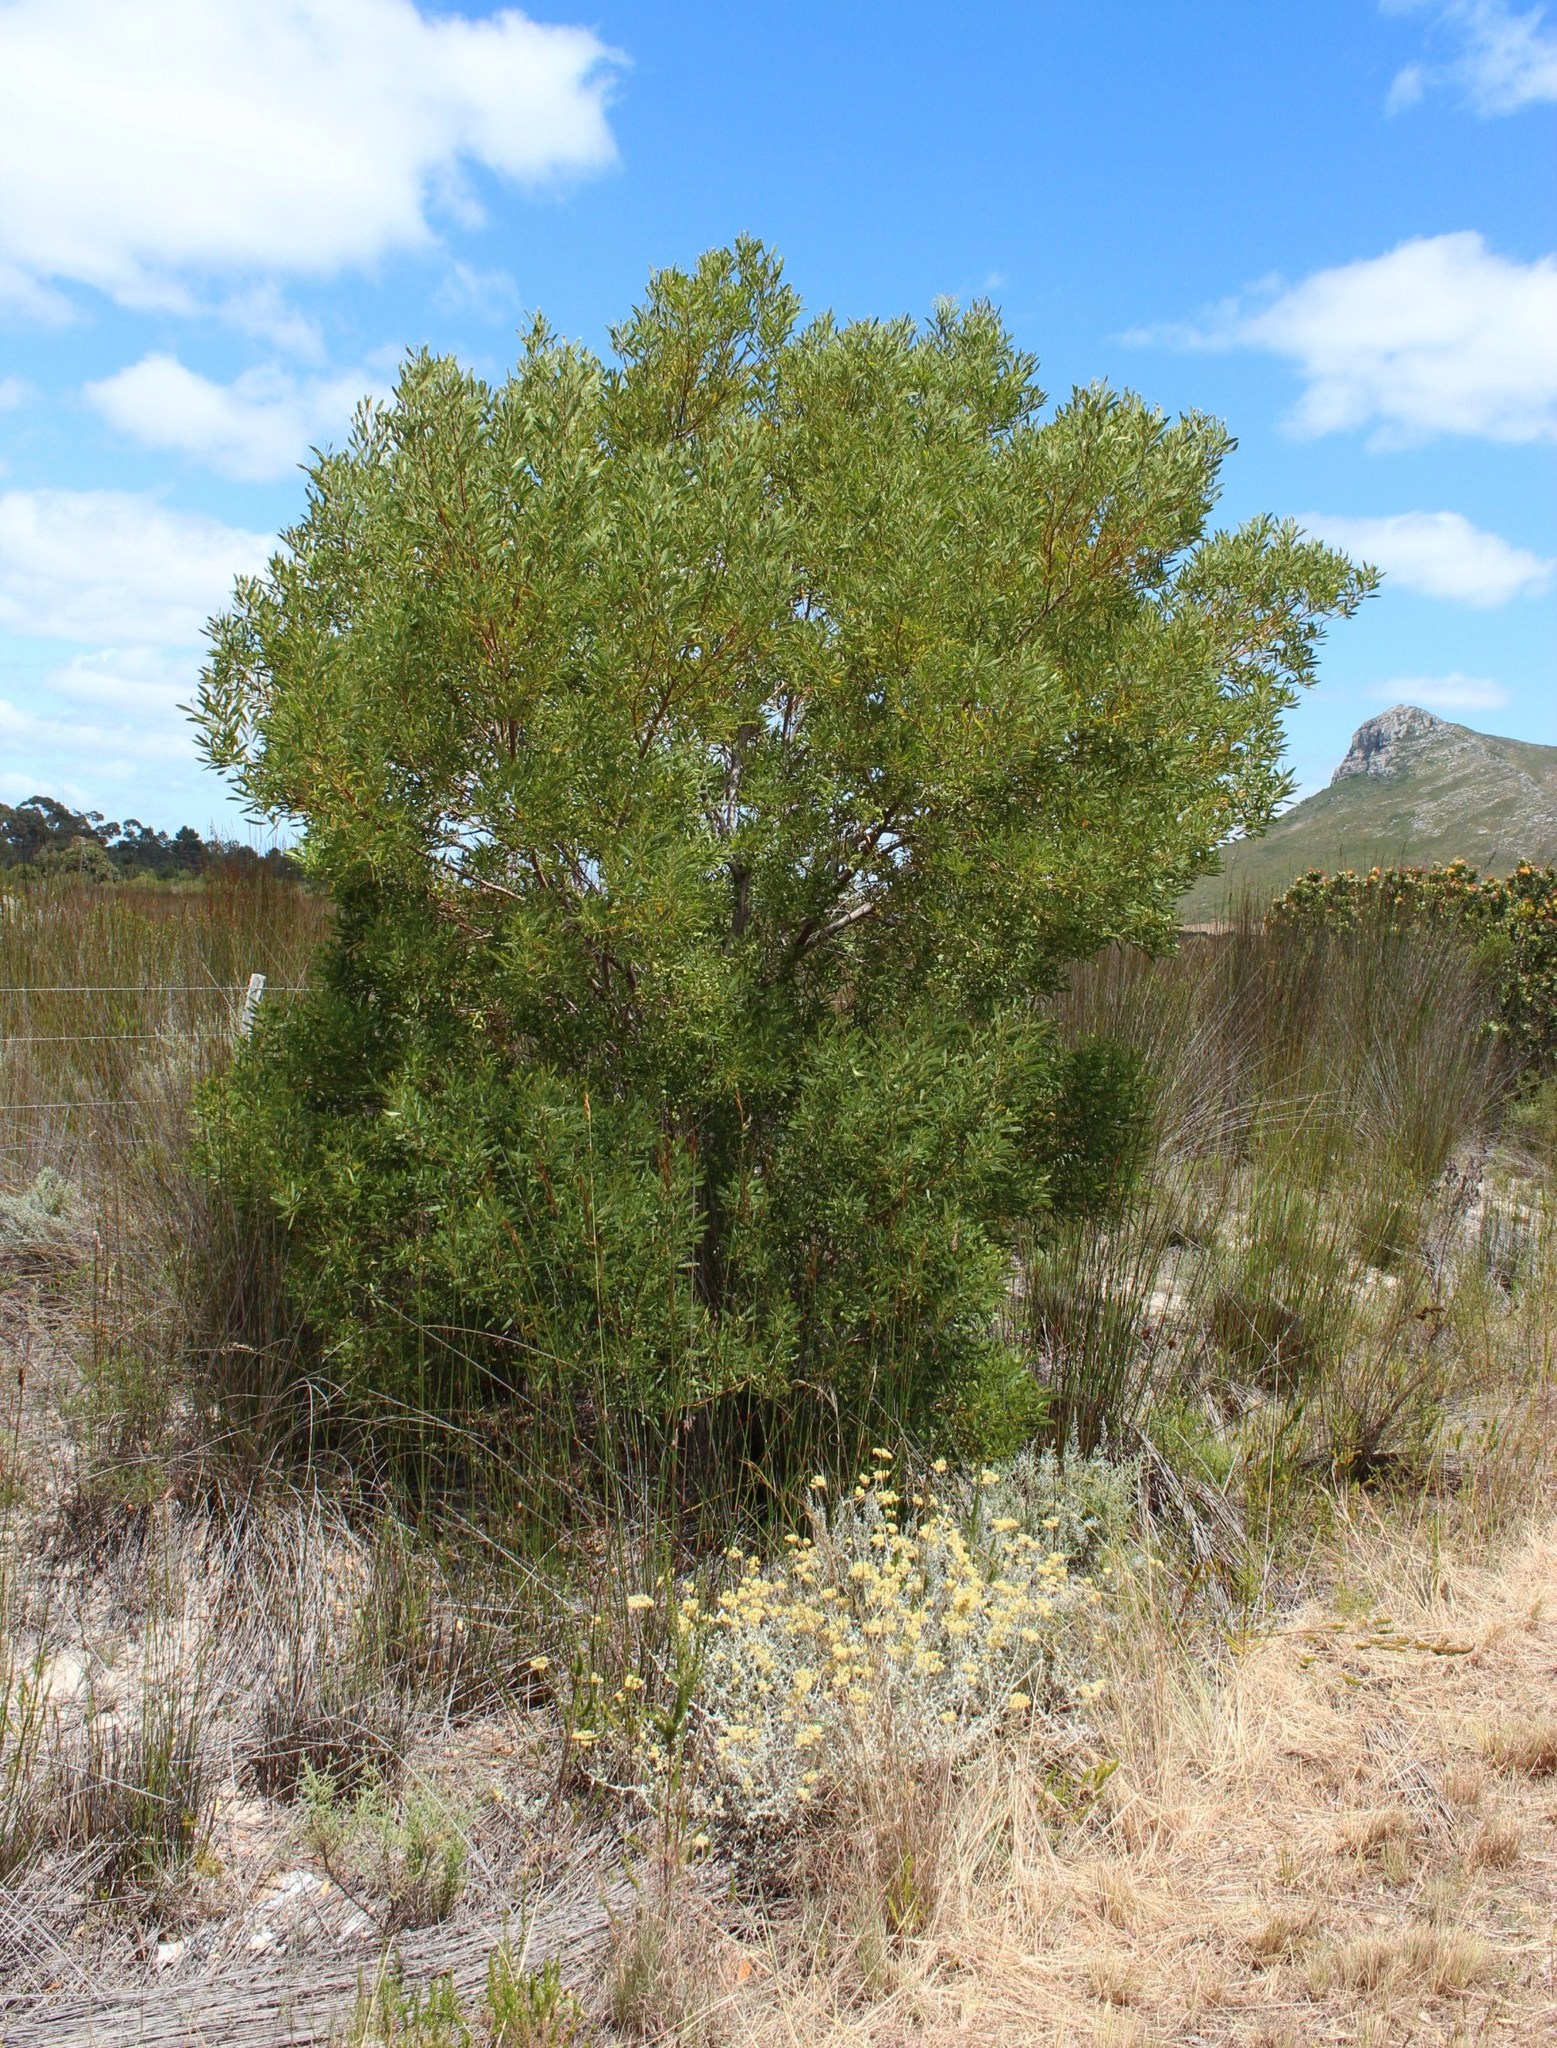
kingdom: Plantae
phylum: Tracheophyta
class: Magnoliopsida
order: Fabales
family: Fabaceae
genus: Acacia
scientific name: Acacia cyclops
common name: Coastal wattle
